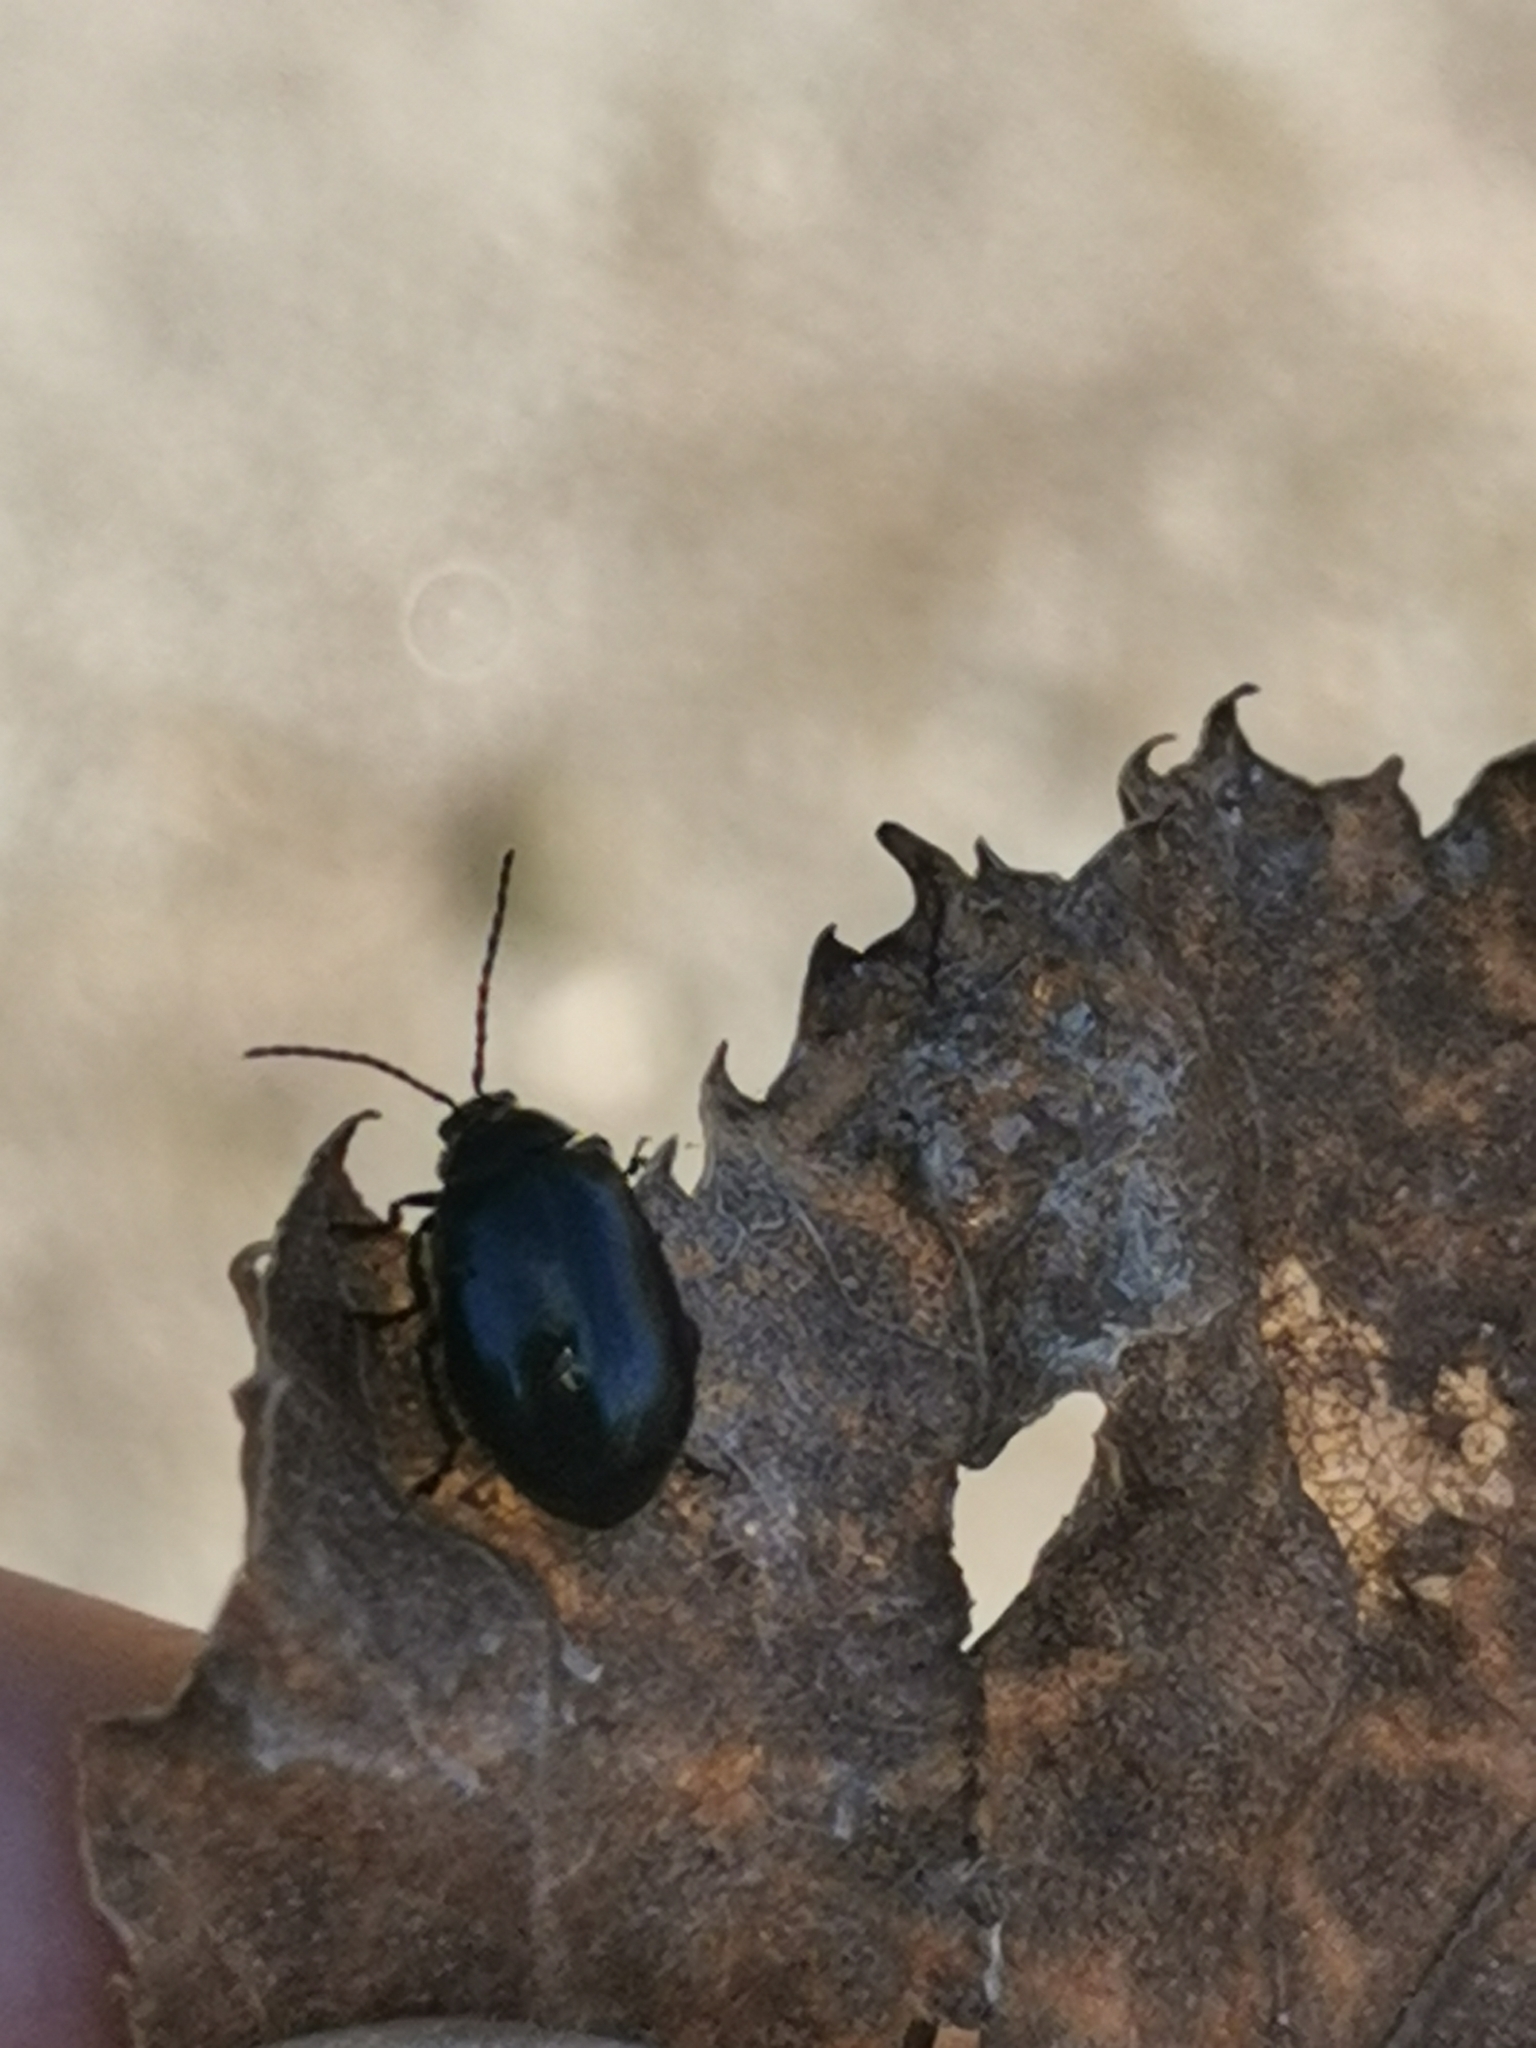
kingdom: Animalia
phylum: Arthropoda
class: Insecta
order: Coleoptera
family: Chrysomelidae
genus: Agelastica
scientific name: Agelastica alni
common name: Alder leaf beetle
